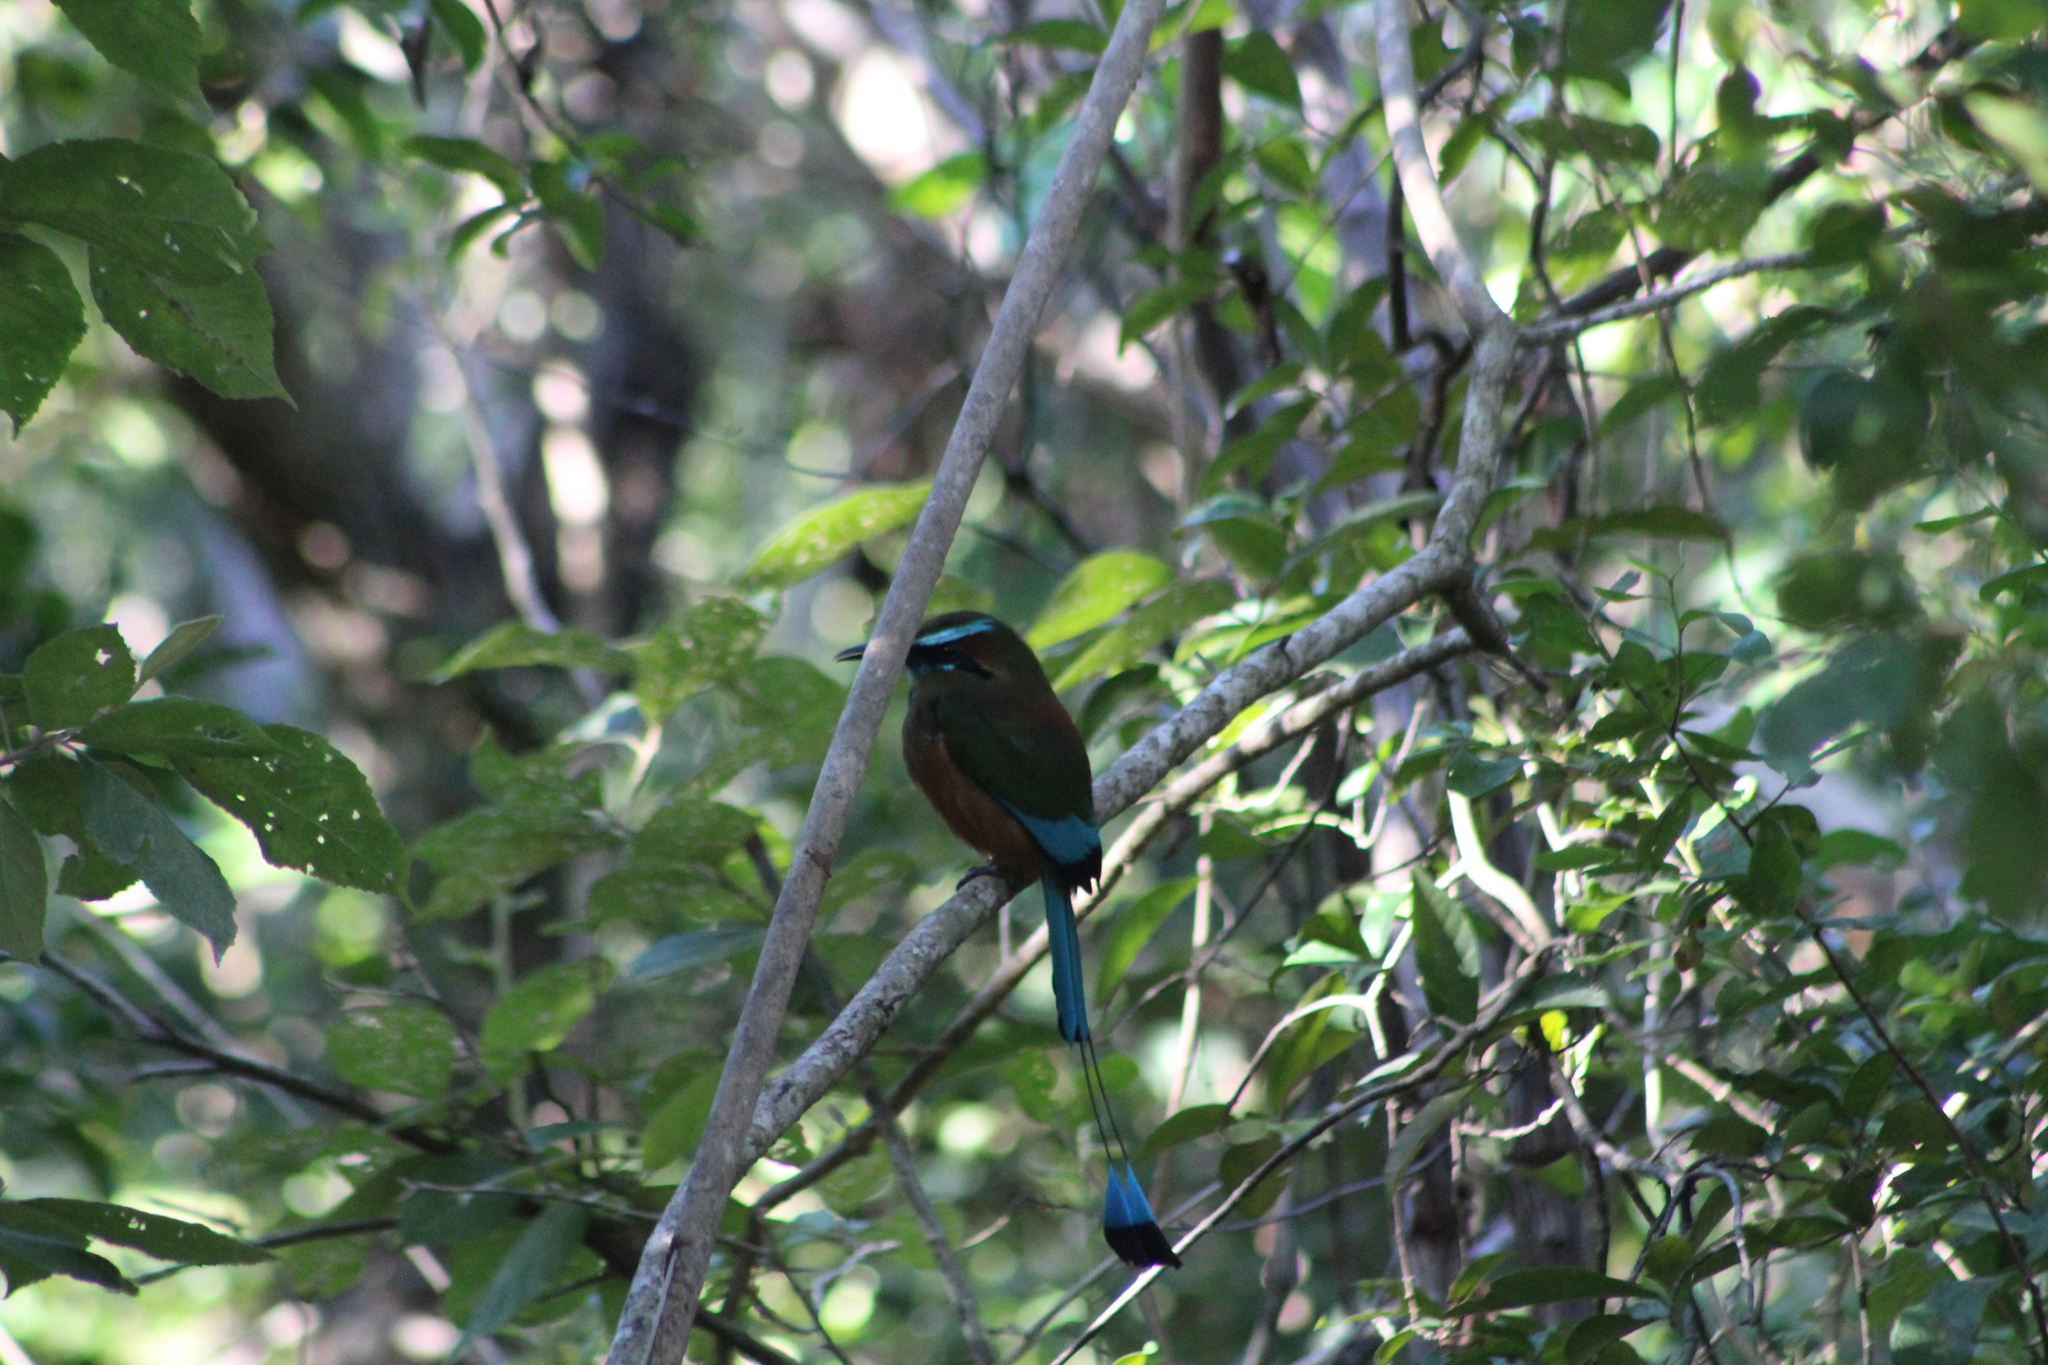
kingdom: Animalia
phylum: Chordata
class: Aves
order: Coraciiformes
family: Momotidae
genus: Eumomota
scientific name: Eumomota superciliosa
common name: Turquoise-browed motmot
